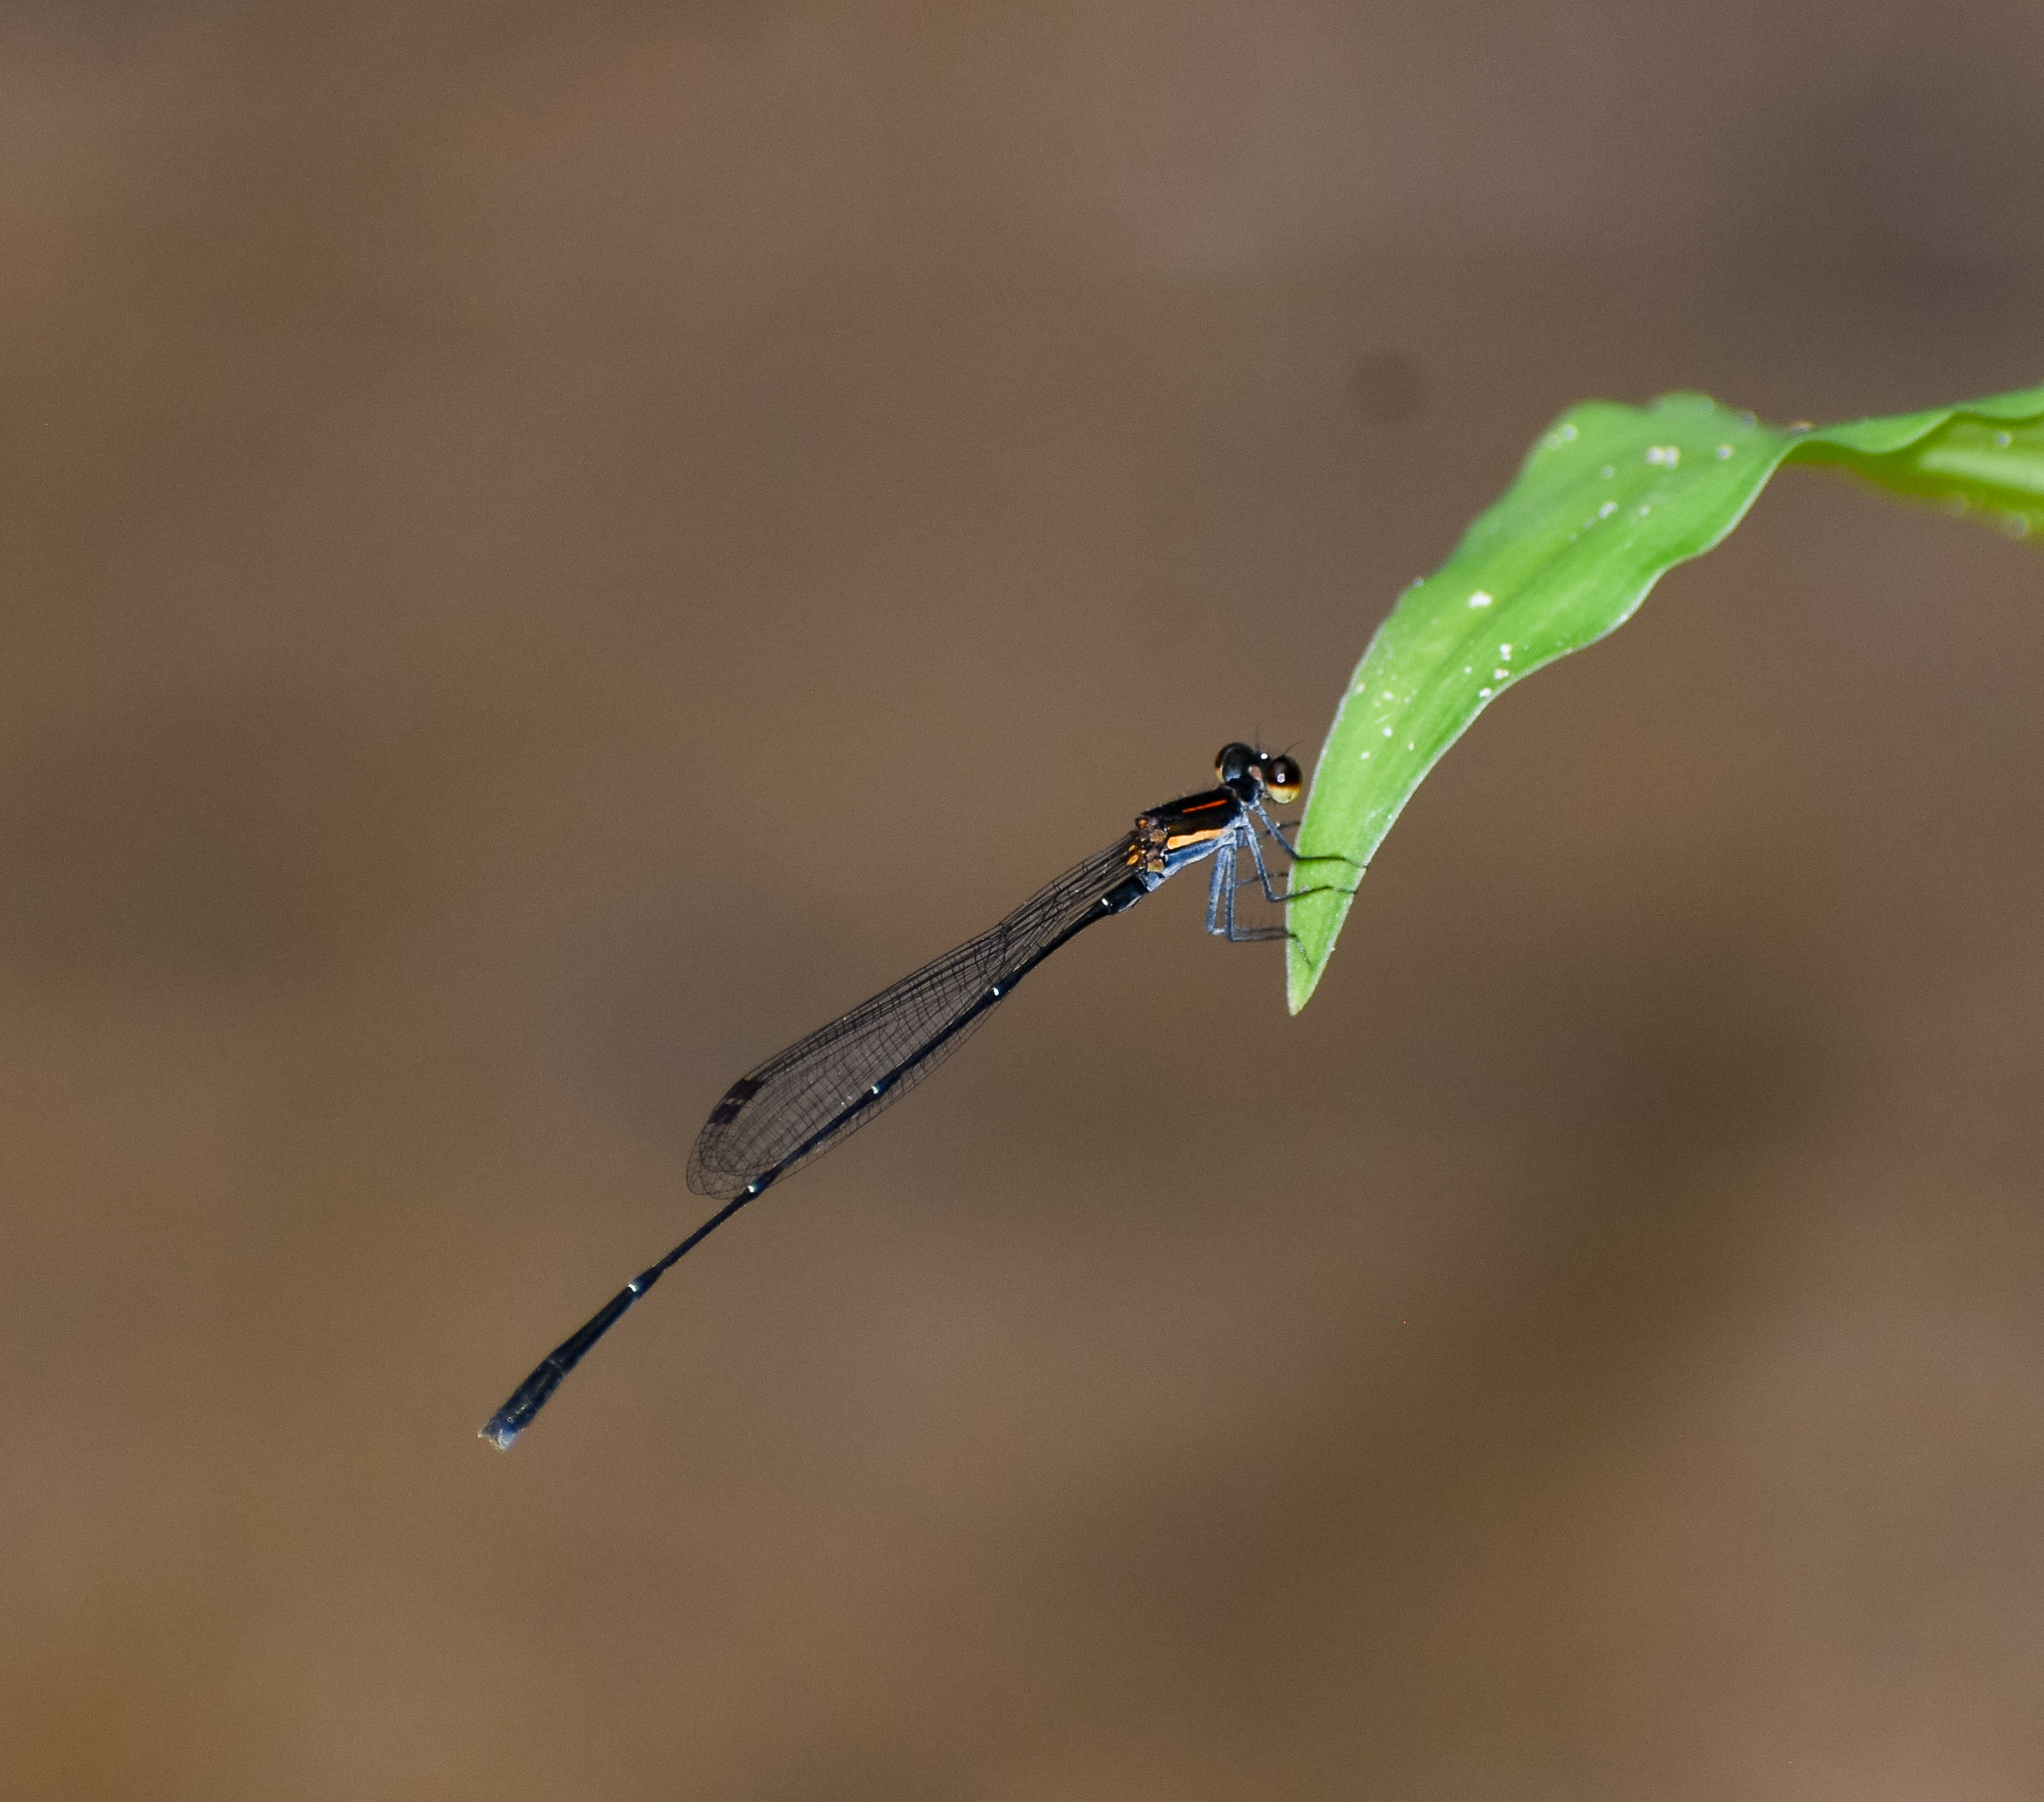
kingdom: Animalia
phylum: Arthropoda
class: Insecta
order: Odonata
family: Platycnemididae
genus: Prodasineura
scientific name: Prodasineura verticalis
